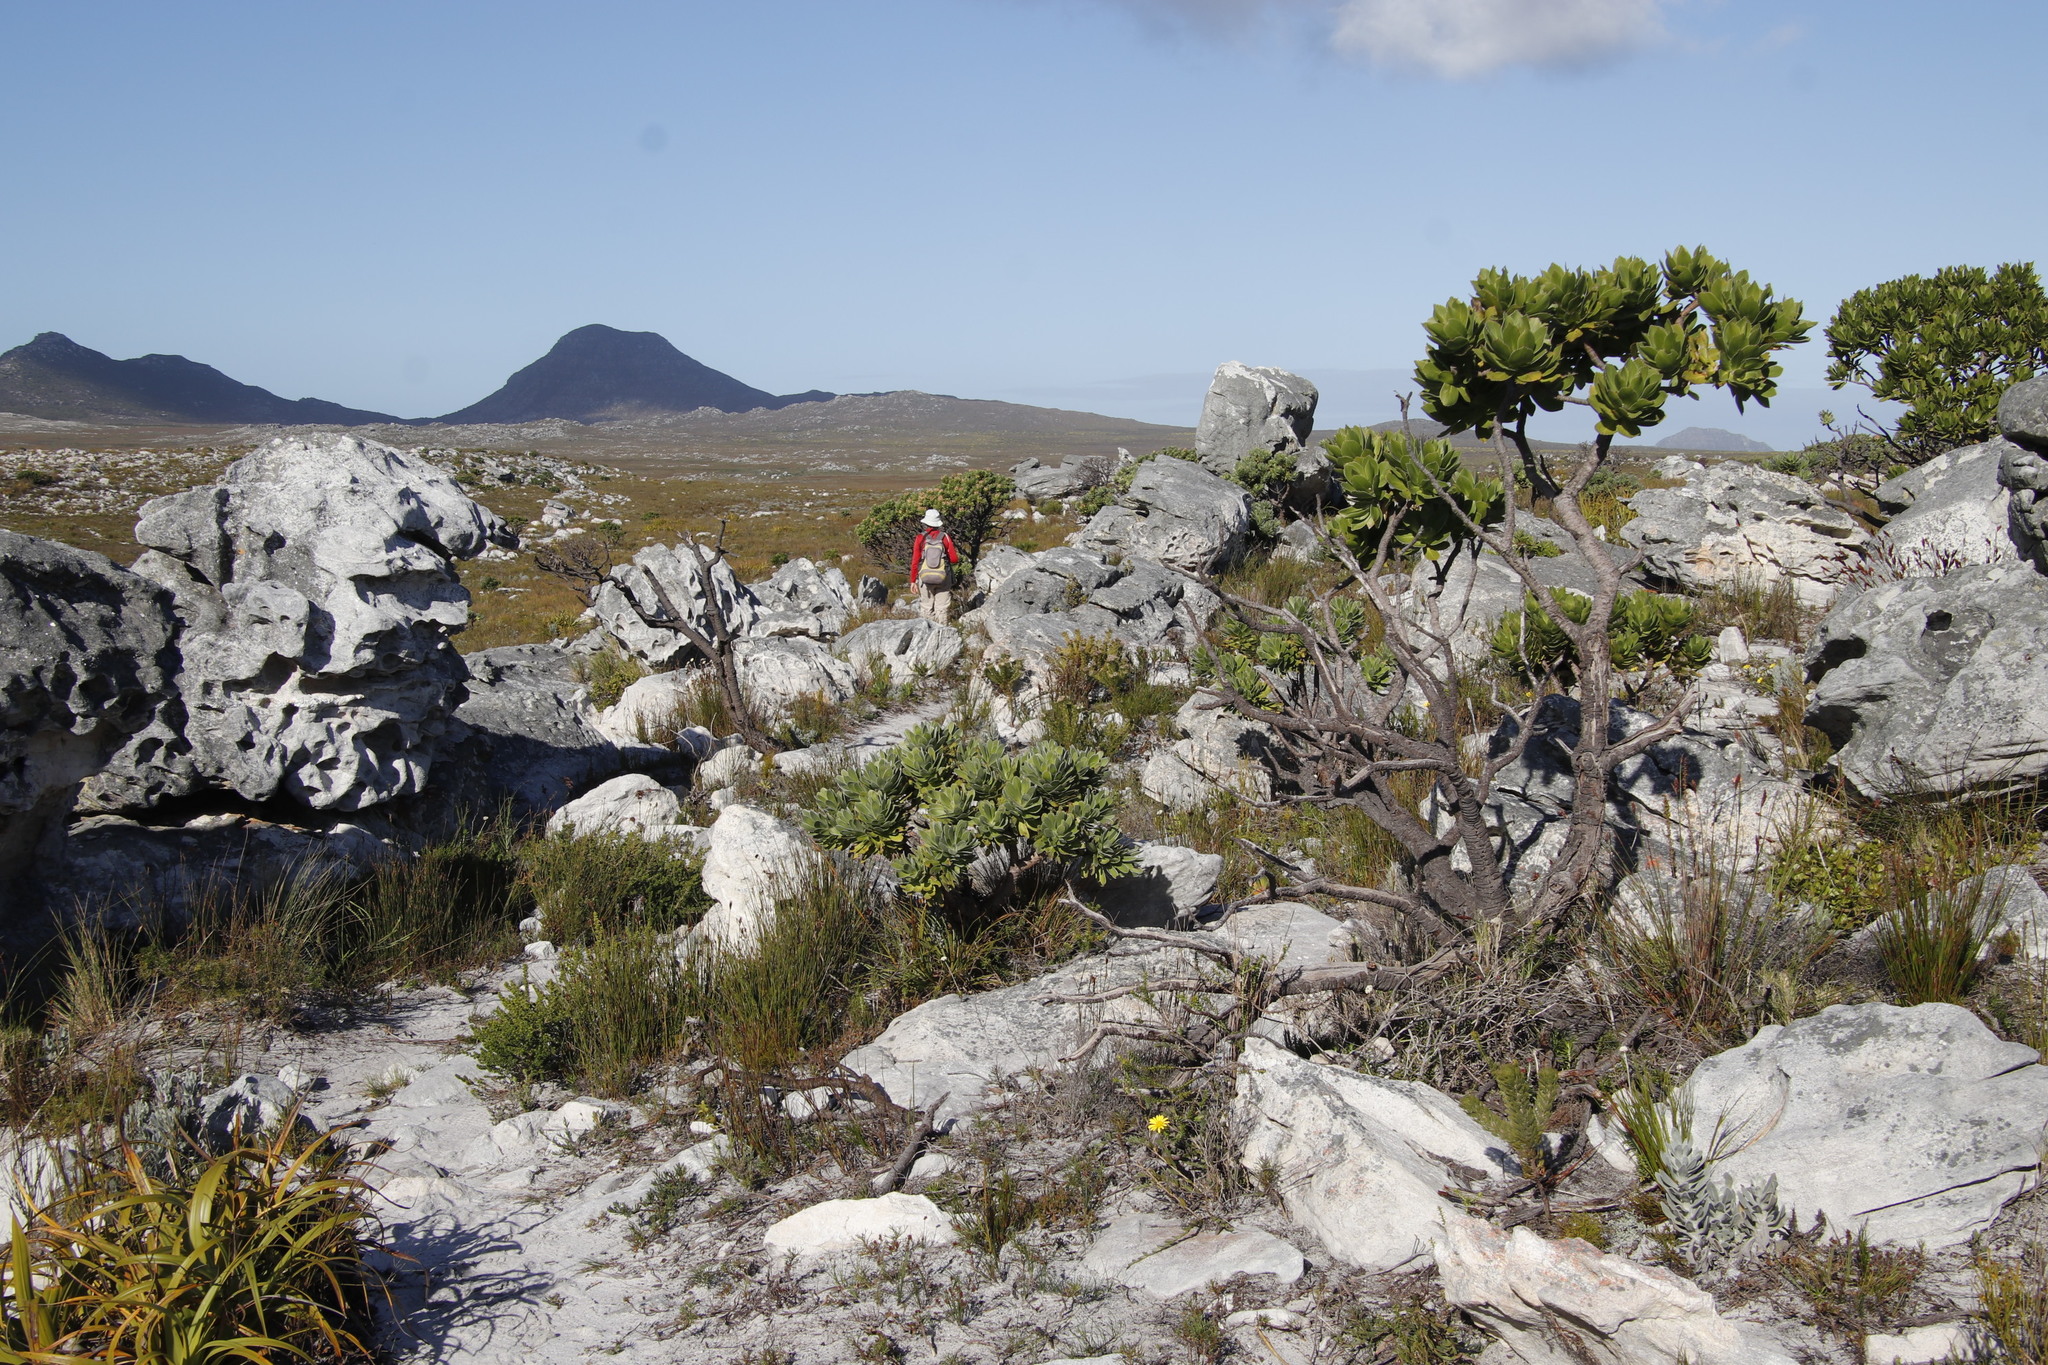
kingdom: Plantae
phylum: Tracheophyta
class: Magnoliopsida
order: Proteales
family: Proteaceae
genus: Mimetes
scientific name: Mimetes fimbriifolius
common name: Fringed bottlebrush
